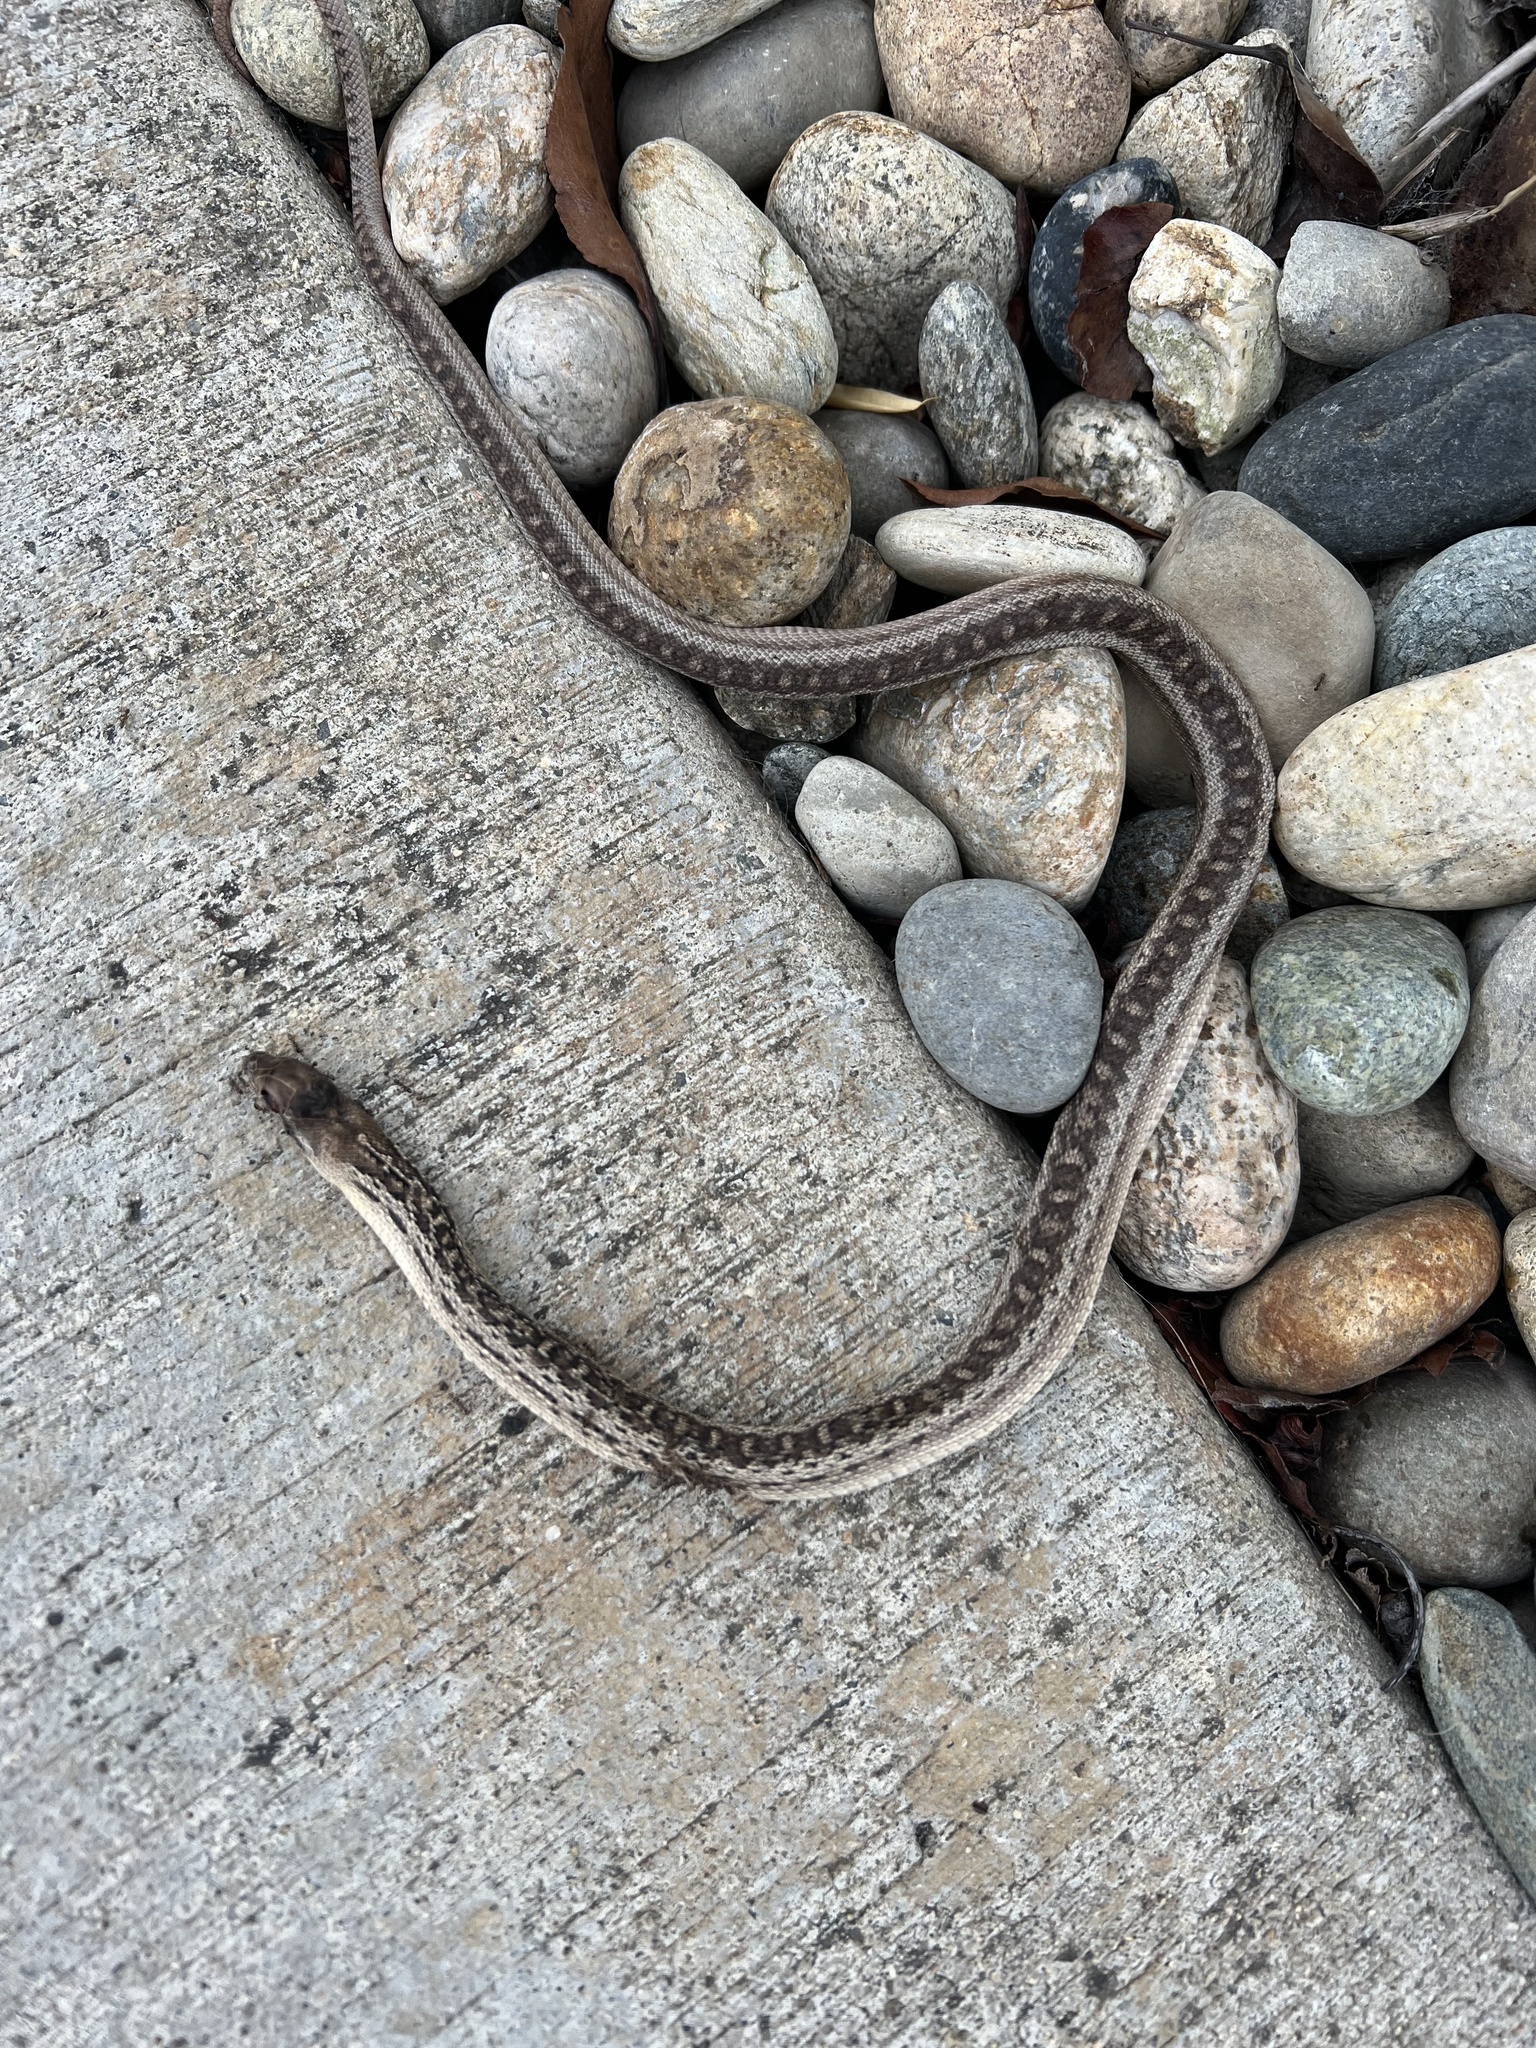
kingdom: Animalia
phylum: Chordata
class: Squamata
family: Colubridae
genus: Pituophis
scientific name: Pituophis catenifer
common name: Gopher snake
